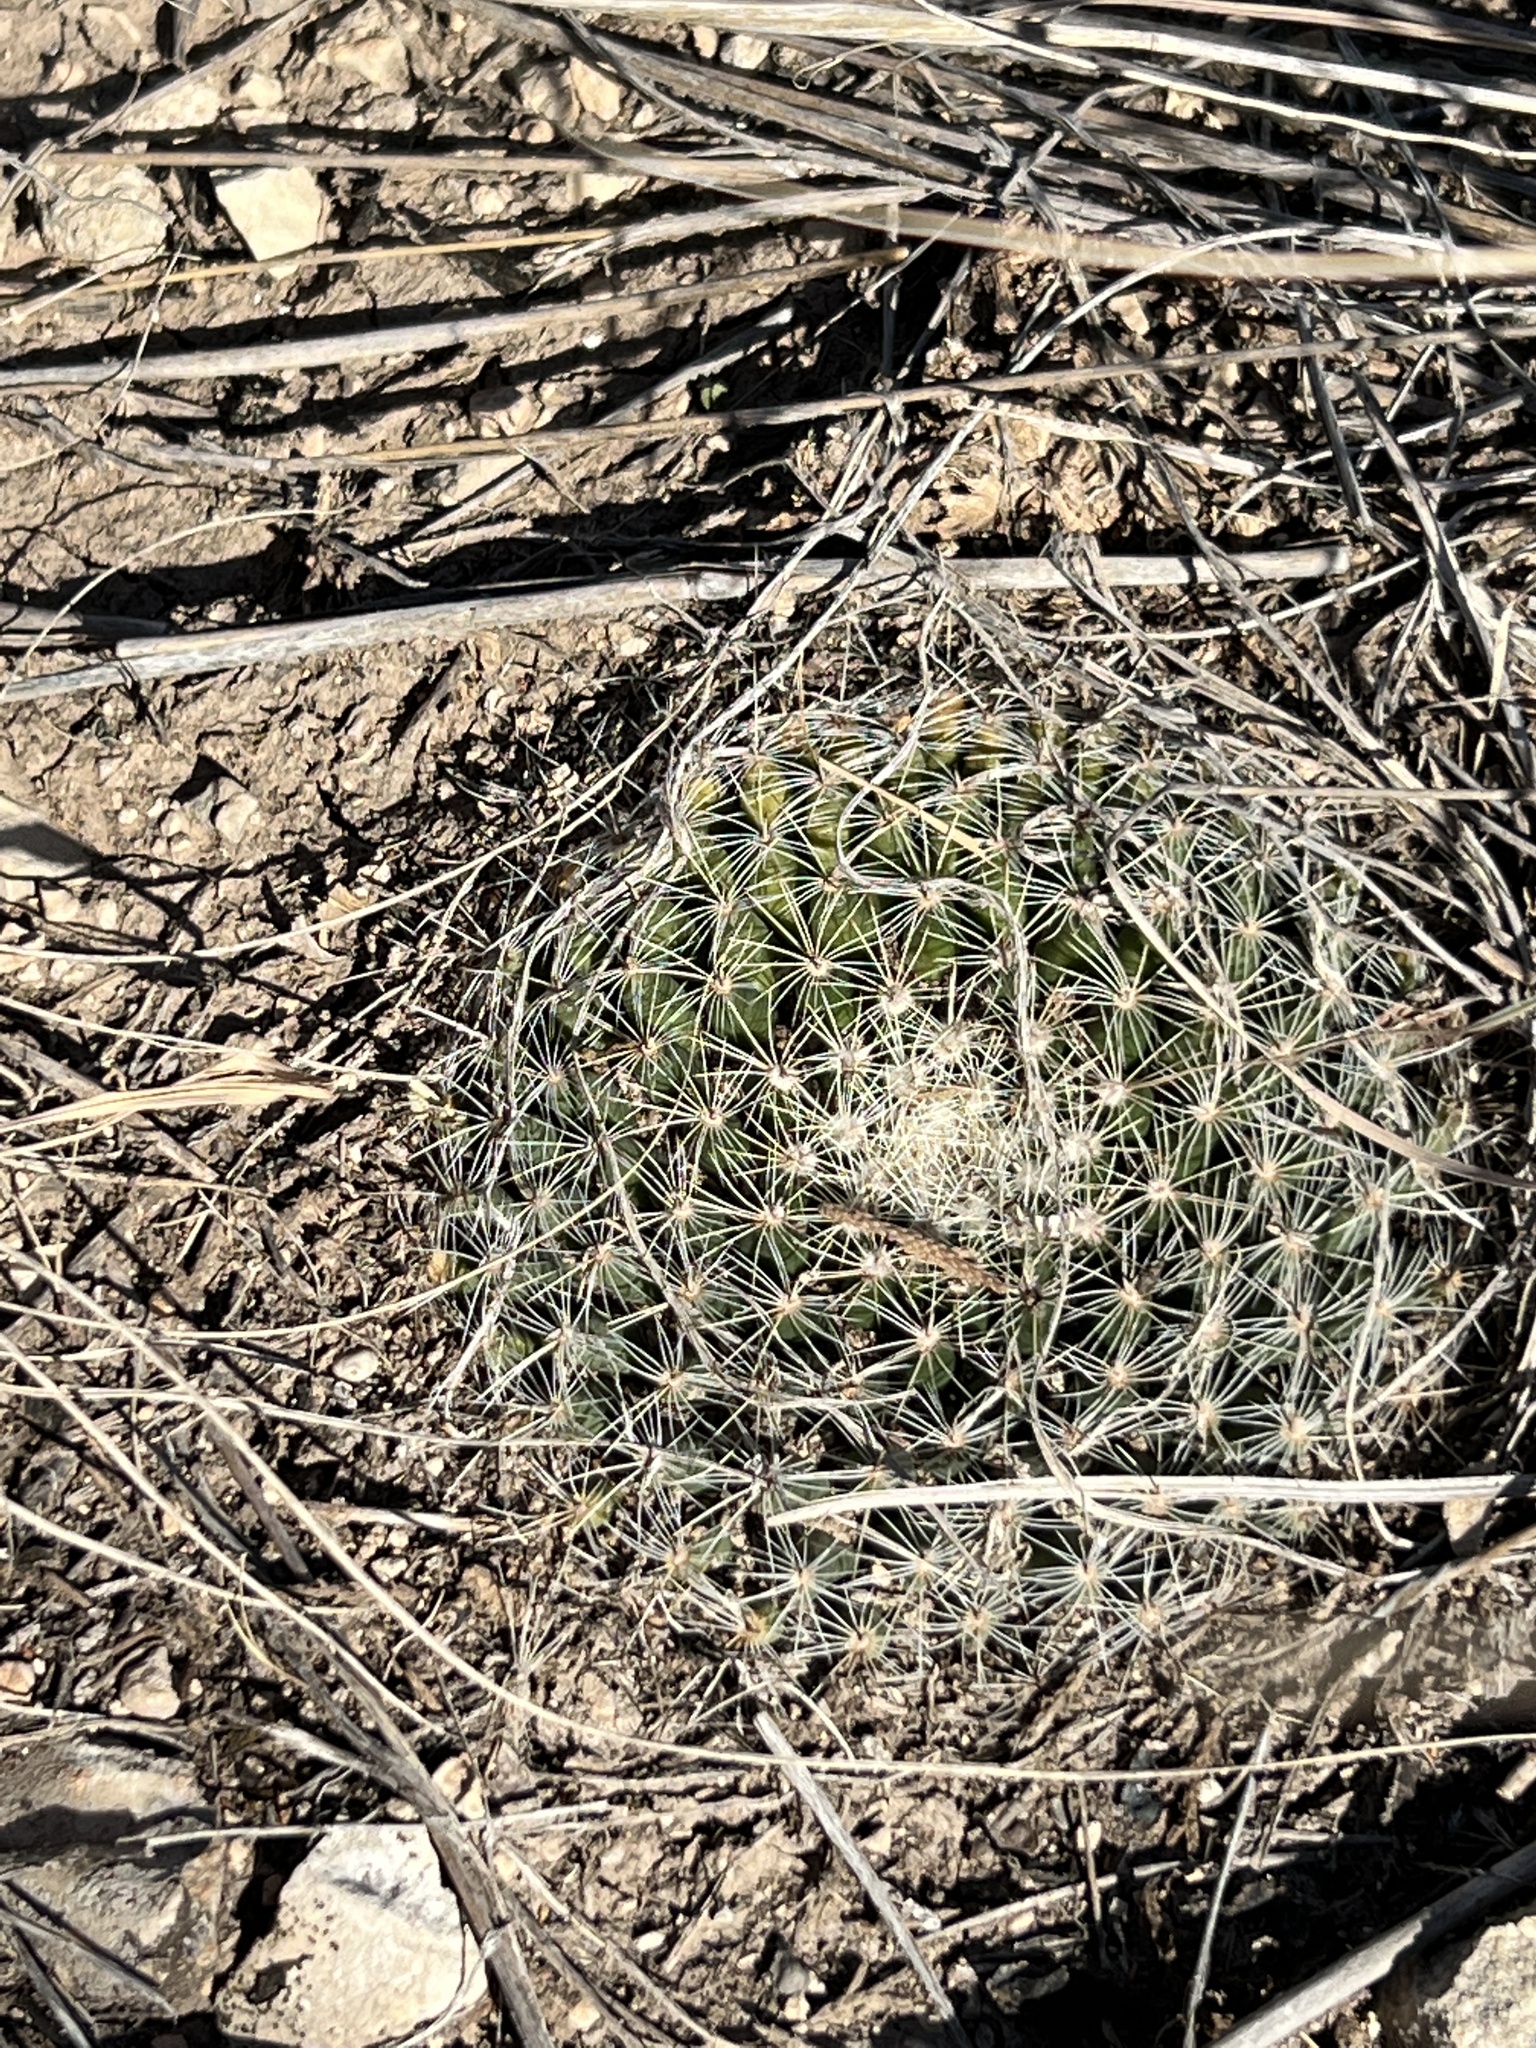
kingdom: Plantae
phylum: Tracheophyta
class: Magnoliopsida
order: Caryophyllales
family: Cactaceae
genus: Mammillaria
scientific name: Mammillaria heyderi
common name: Little nipple cactus
